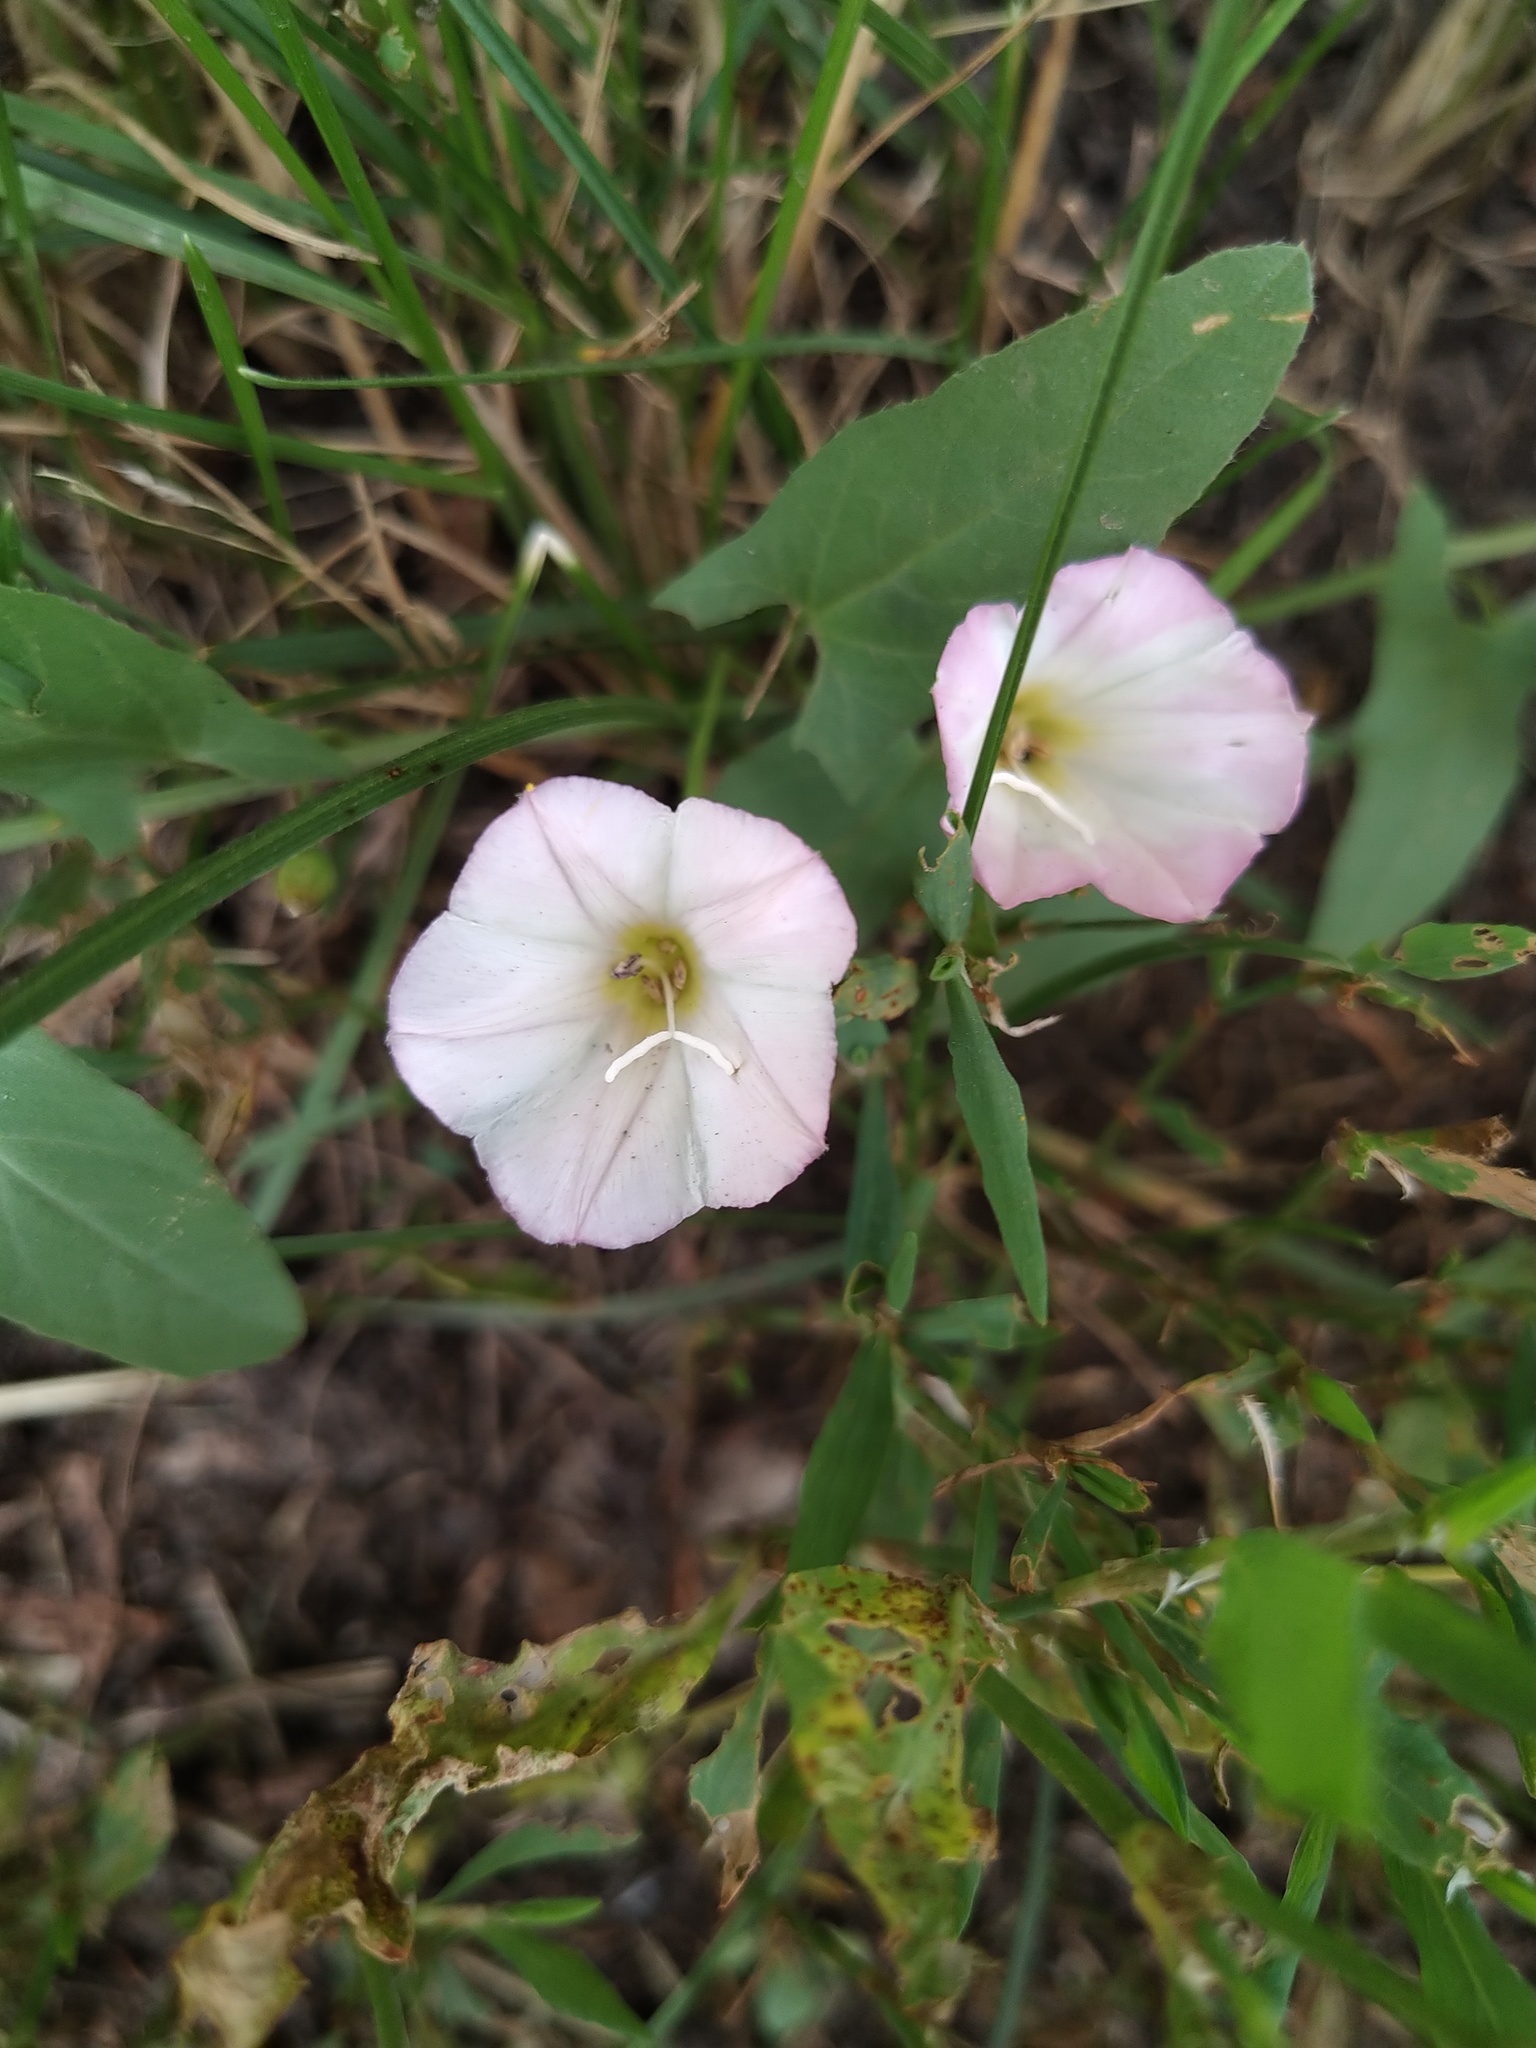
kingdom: Plantae
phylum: Tracheophyta
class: Magnoliopsida
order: Solanales
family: Convolvulaceae
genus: Convolvulus
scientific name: Convolvulus arvensis
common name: Field bindweed
